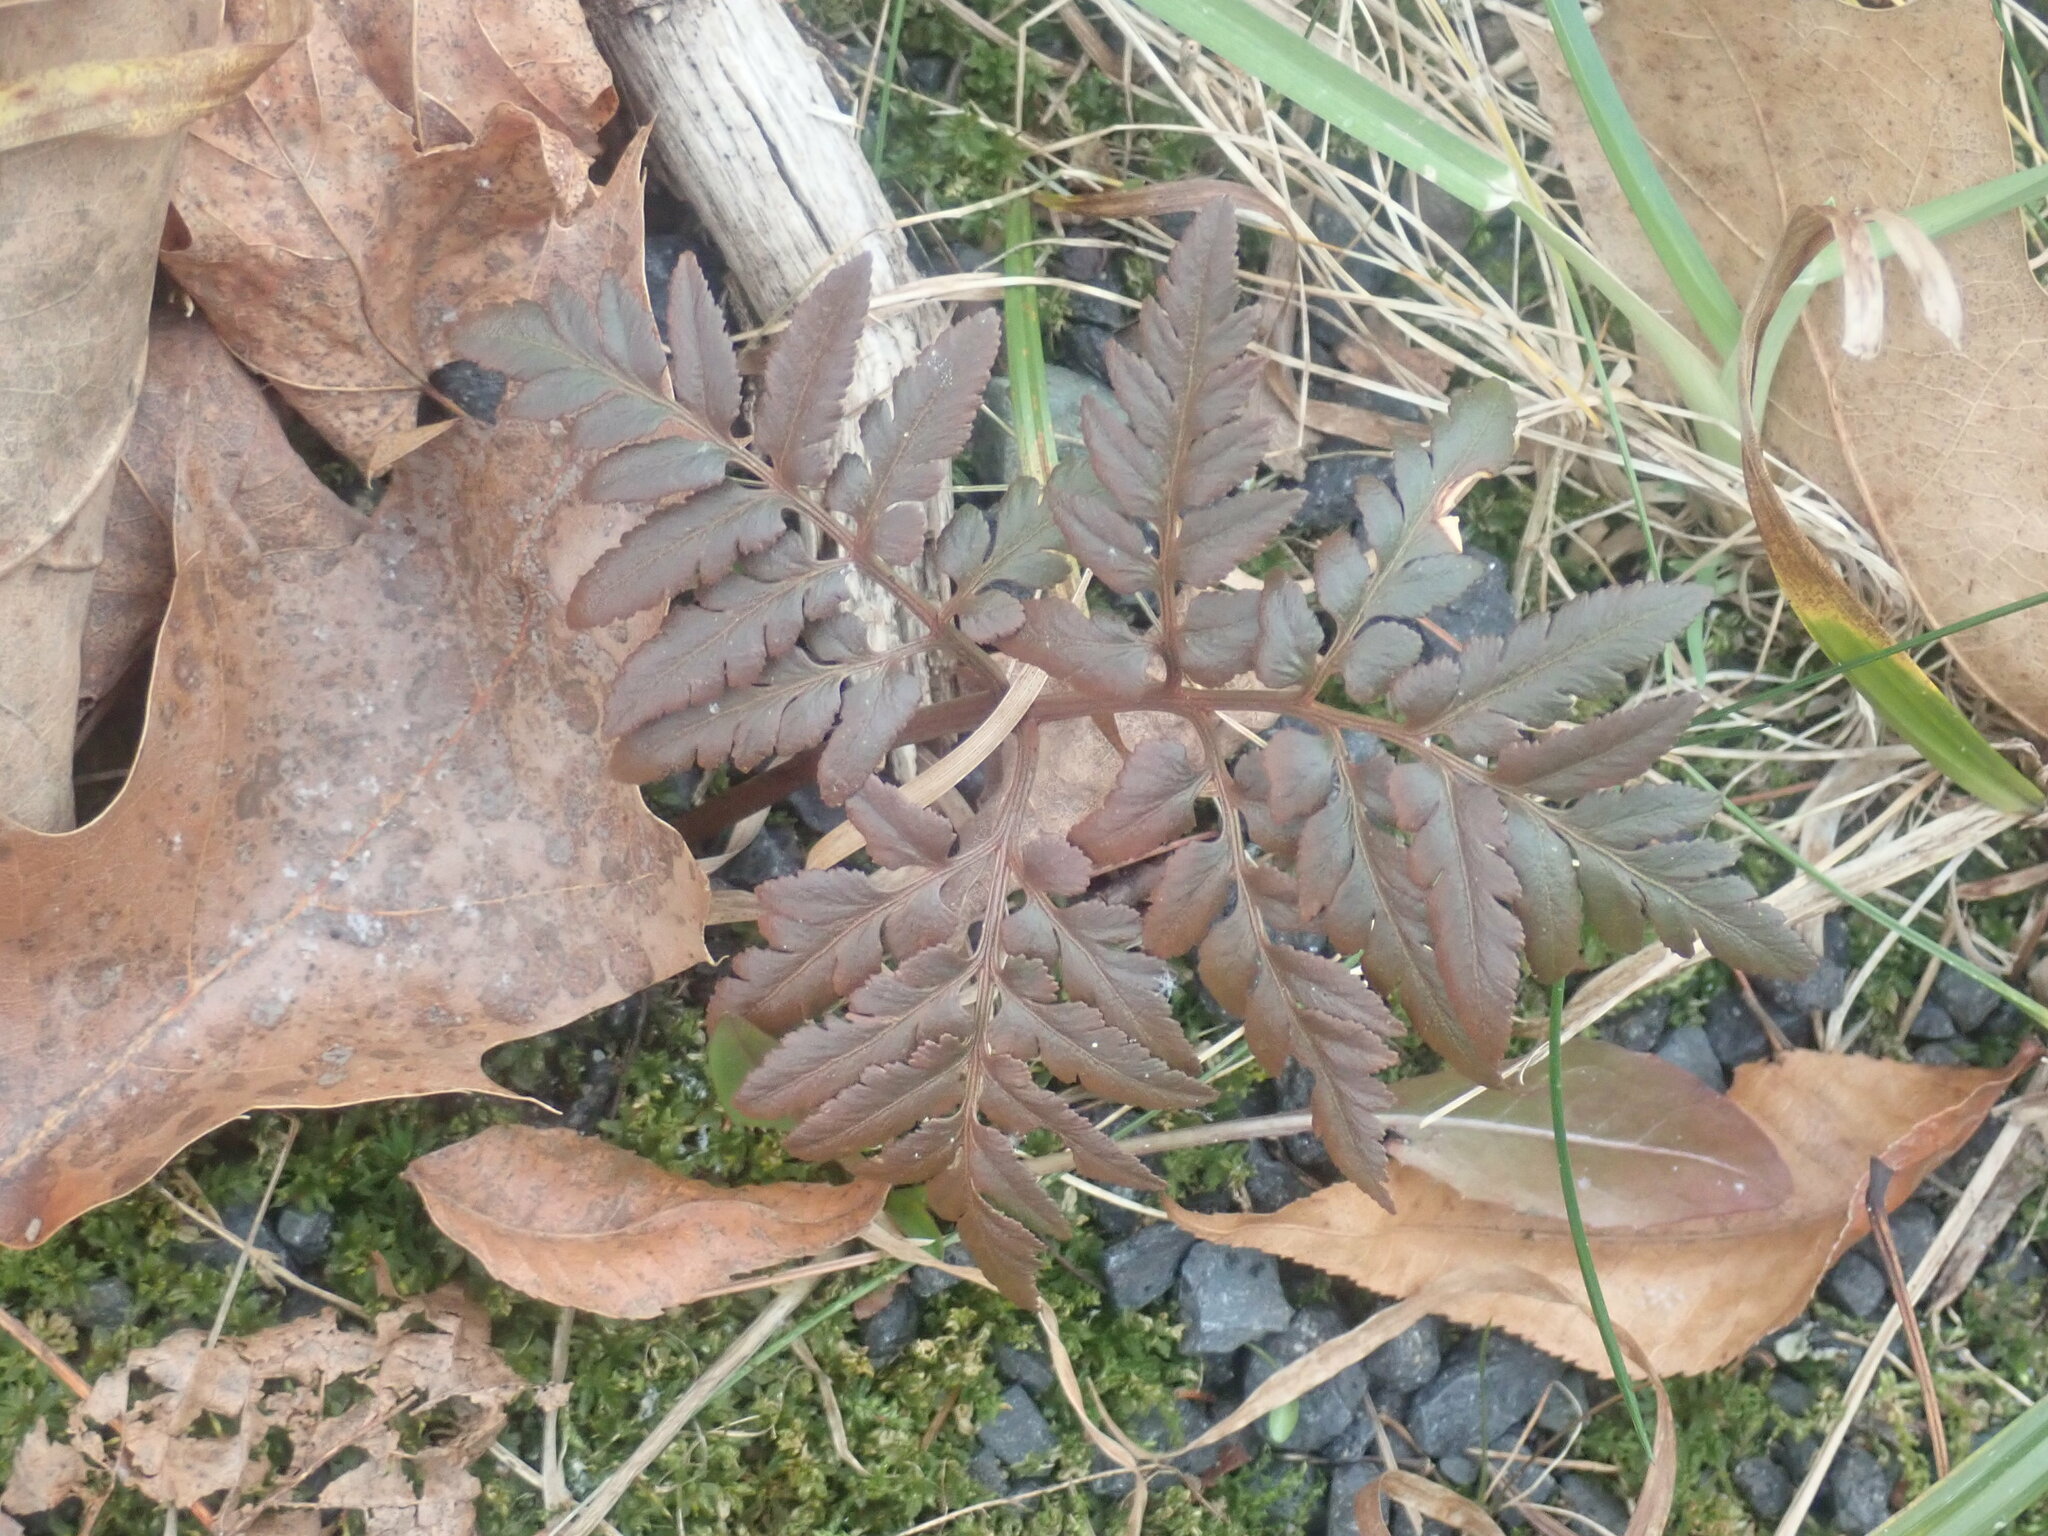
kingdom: Plantae
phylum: Tracheophyta
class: Polypodiopsida
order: Ophioglossales
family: Ophioglossaceae
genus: Sceptridium
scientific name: Sceptridium dissectum
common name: Cut-leaved grapefern
